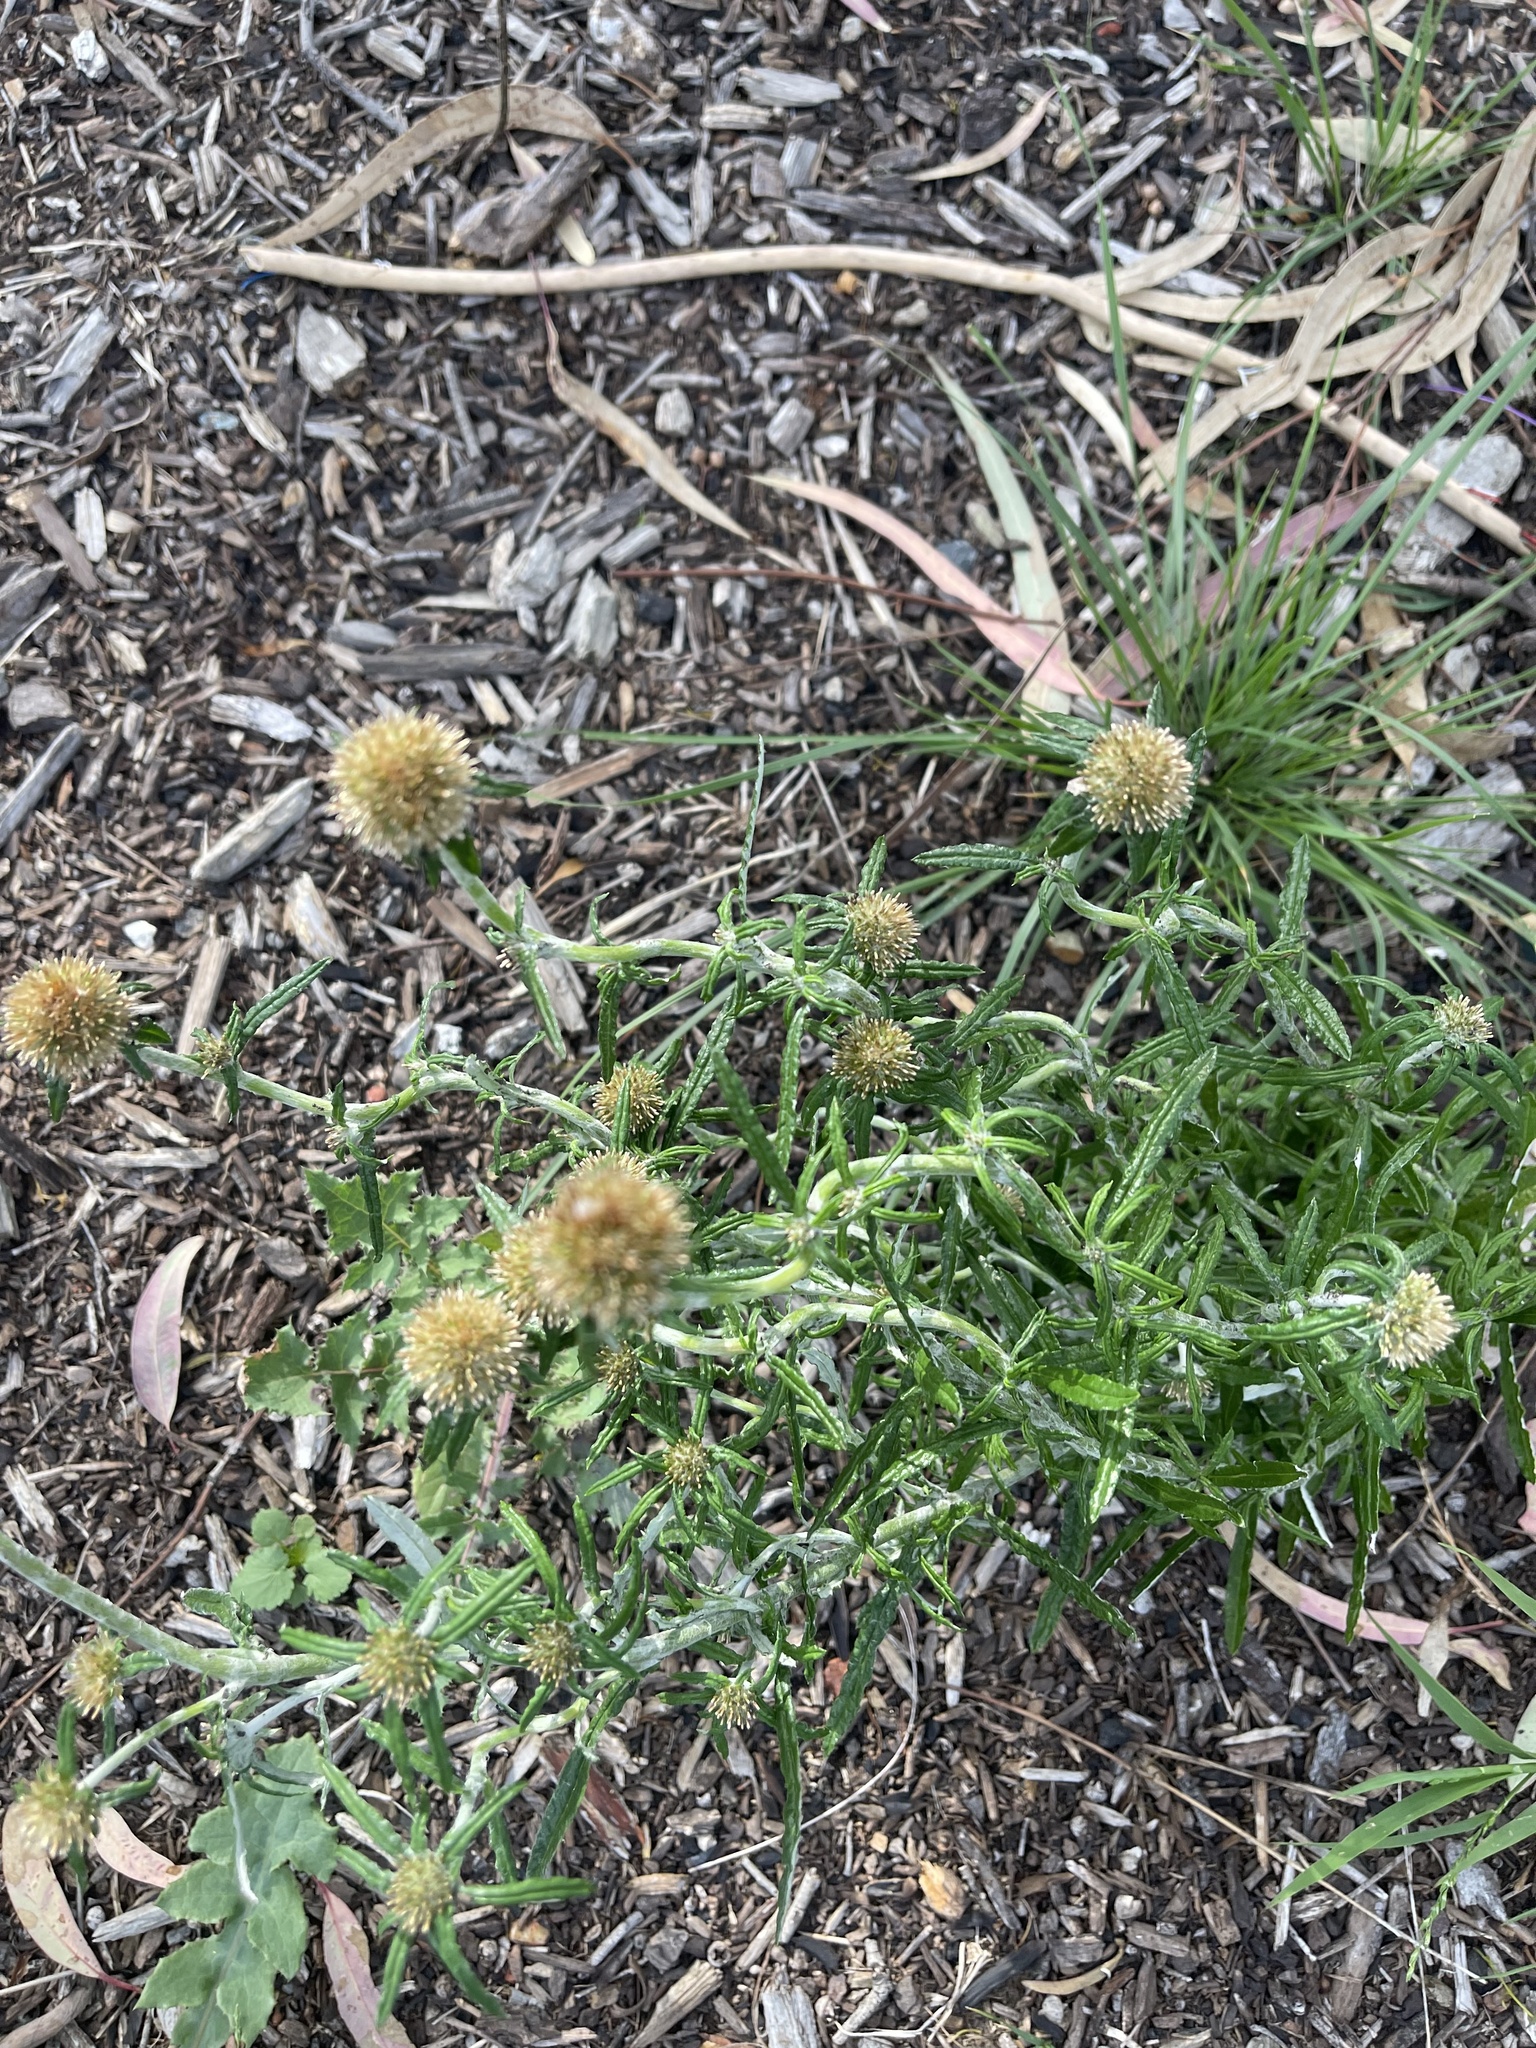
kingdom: Plantae
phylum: Tracheophyta
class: Magnoliopsida
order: Asterales
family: Asteraceae
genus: Euchiton
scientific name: Euchiton sphaericus
